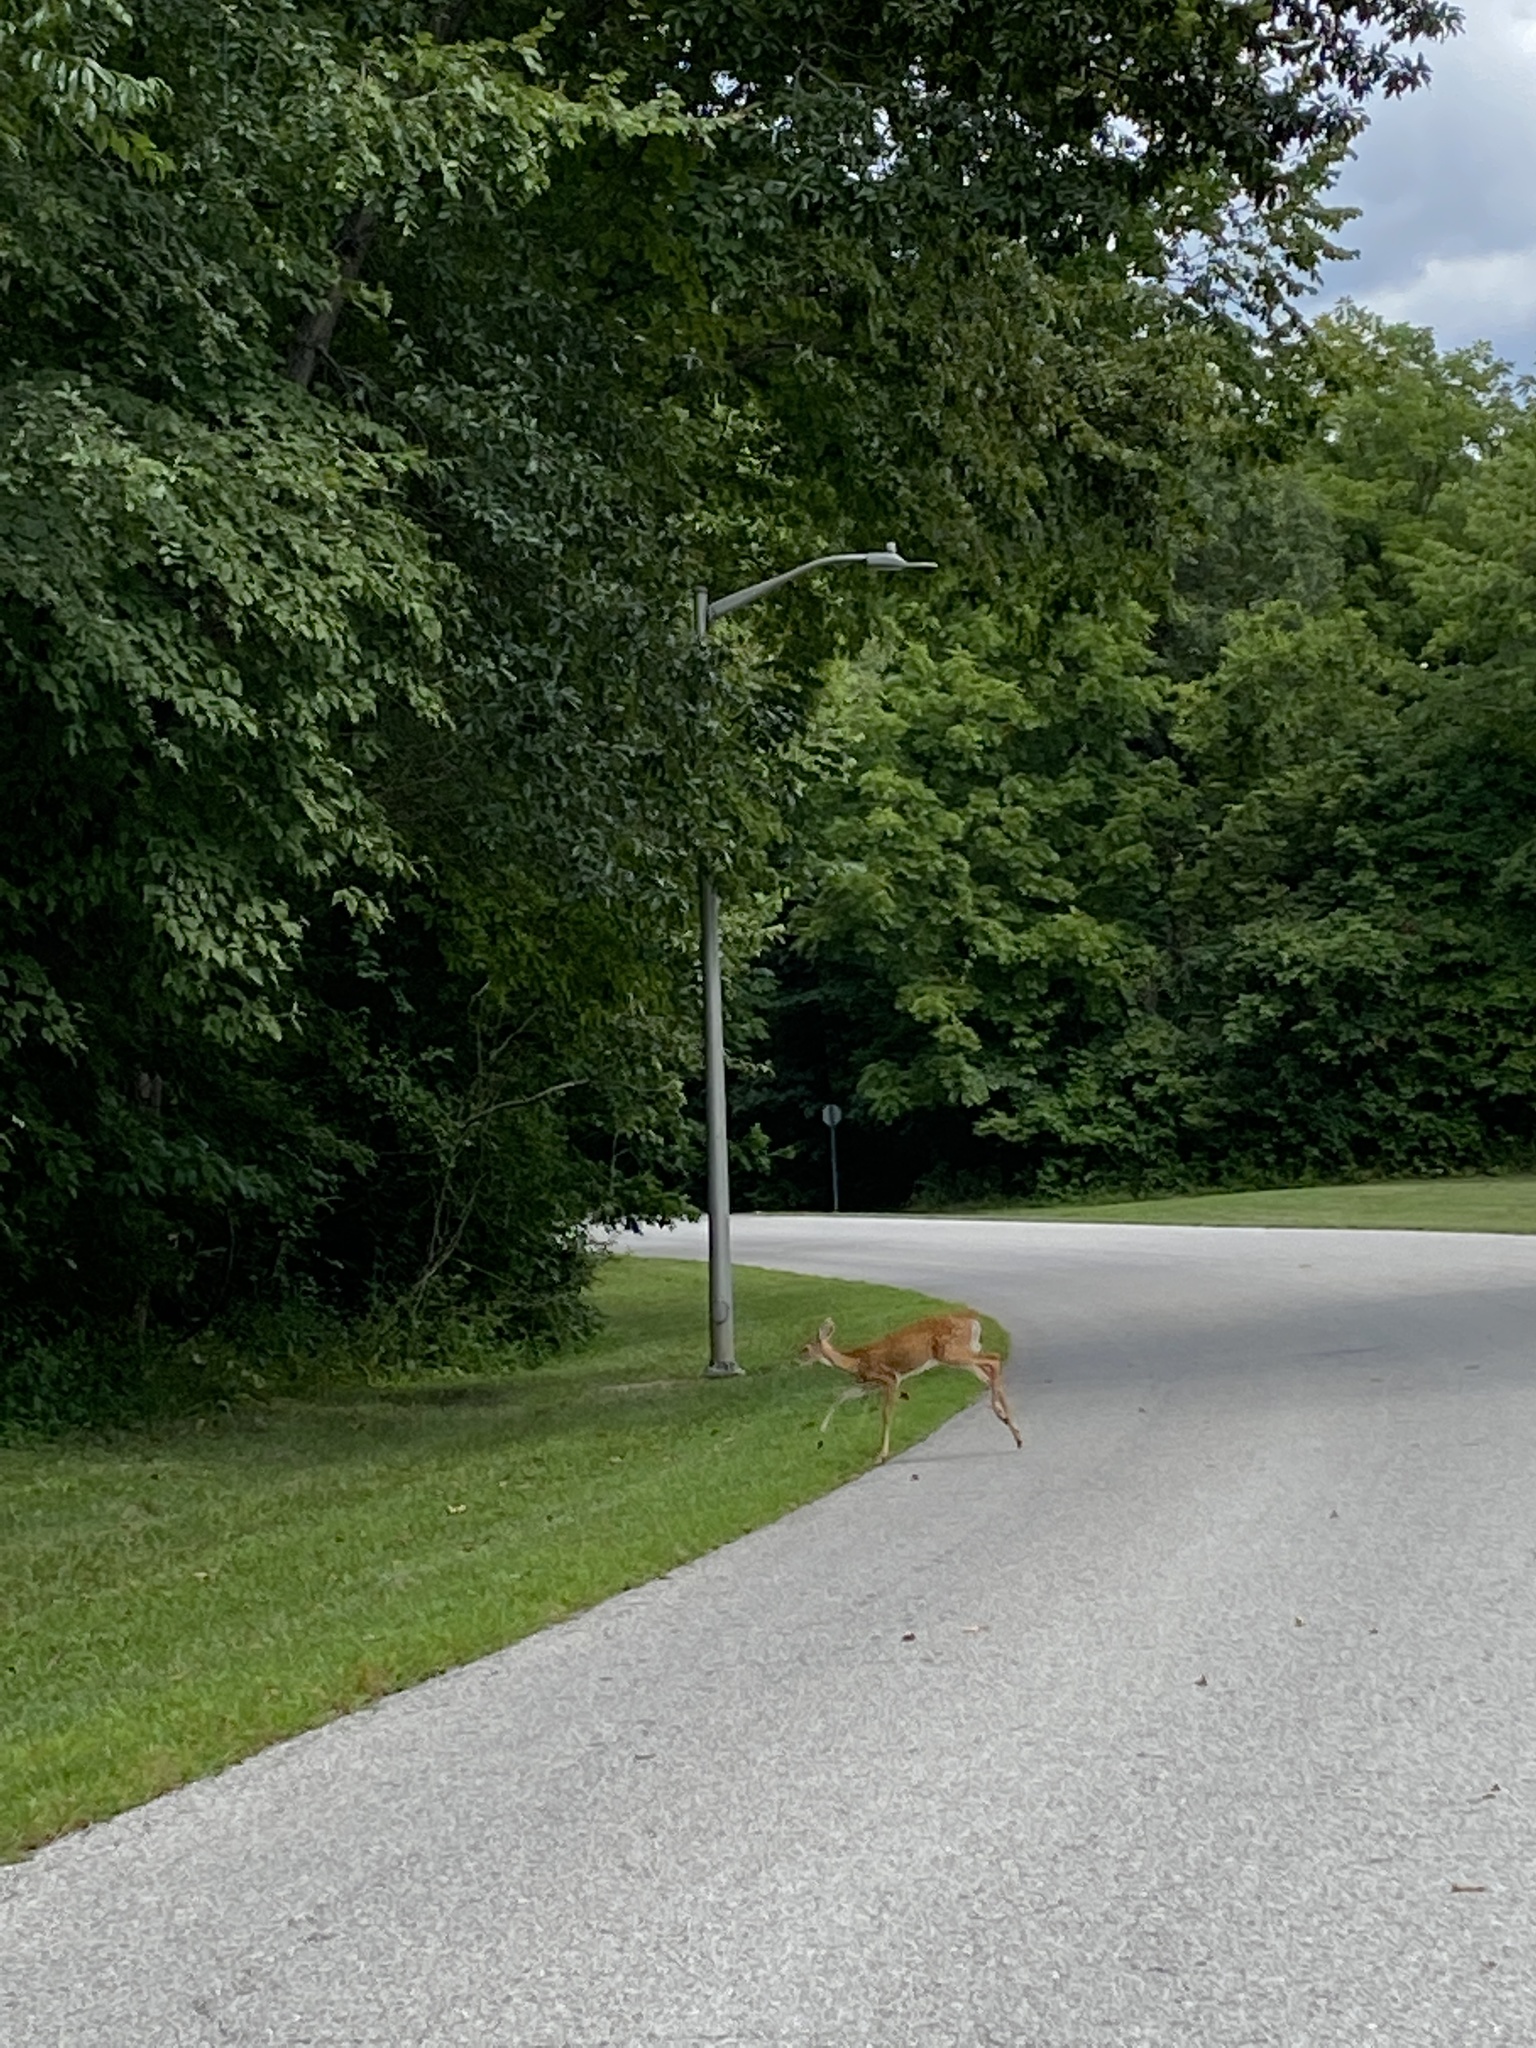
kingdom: Animalia
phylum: Chordata
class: Mammalia
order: Artiodactyla
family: Cervidae
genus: Odocoileus
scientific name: Odocoileus virginianus
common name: White-tailed deer
